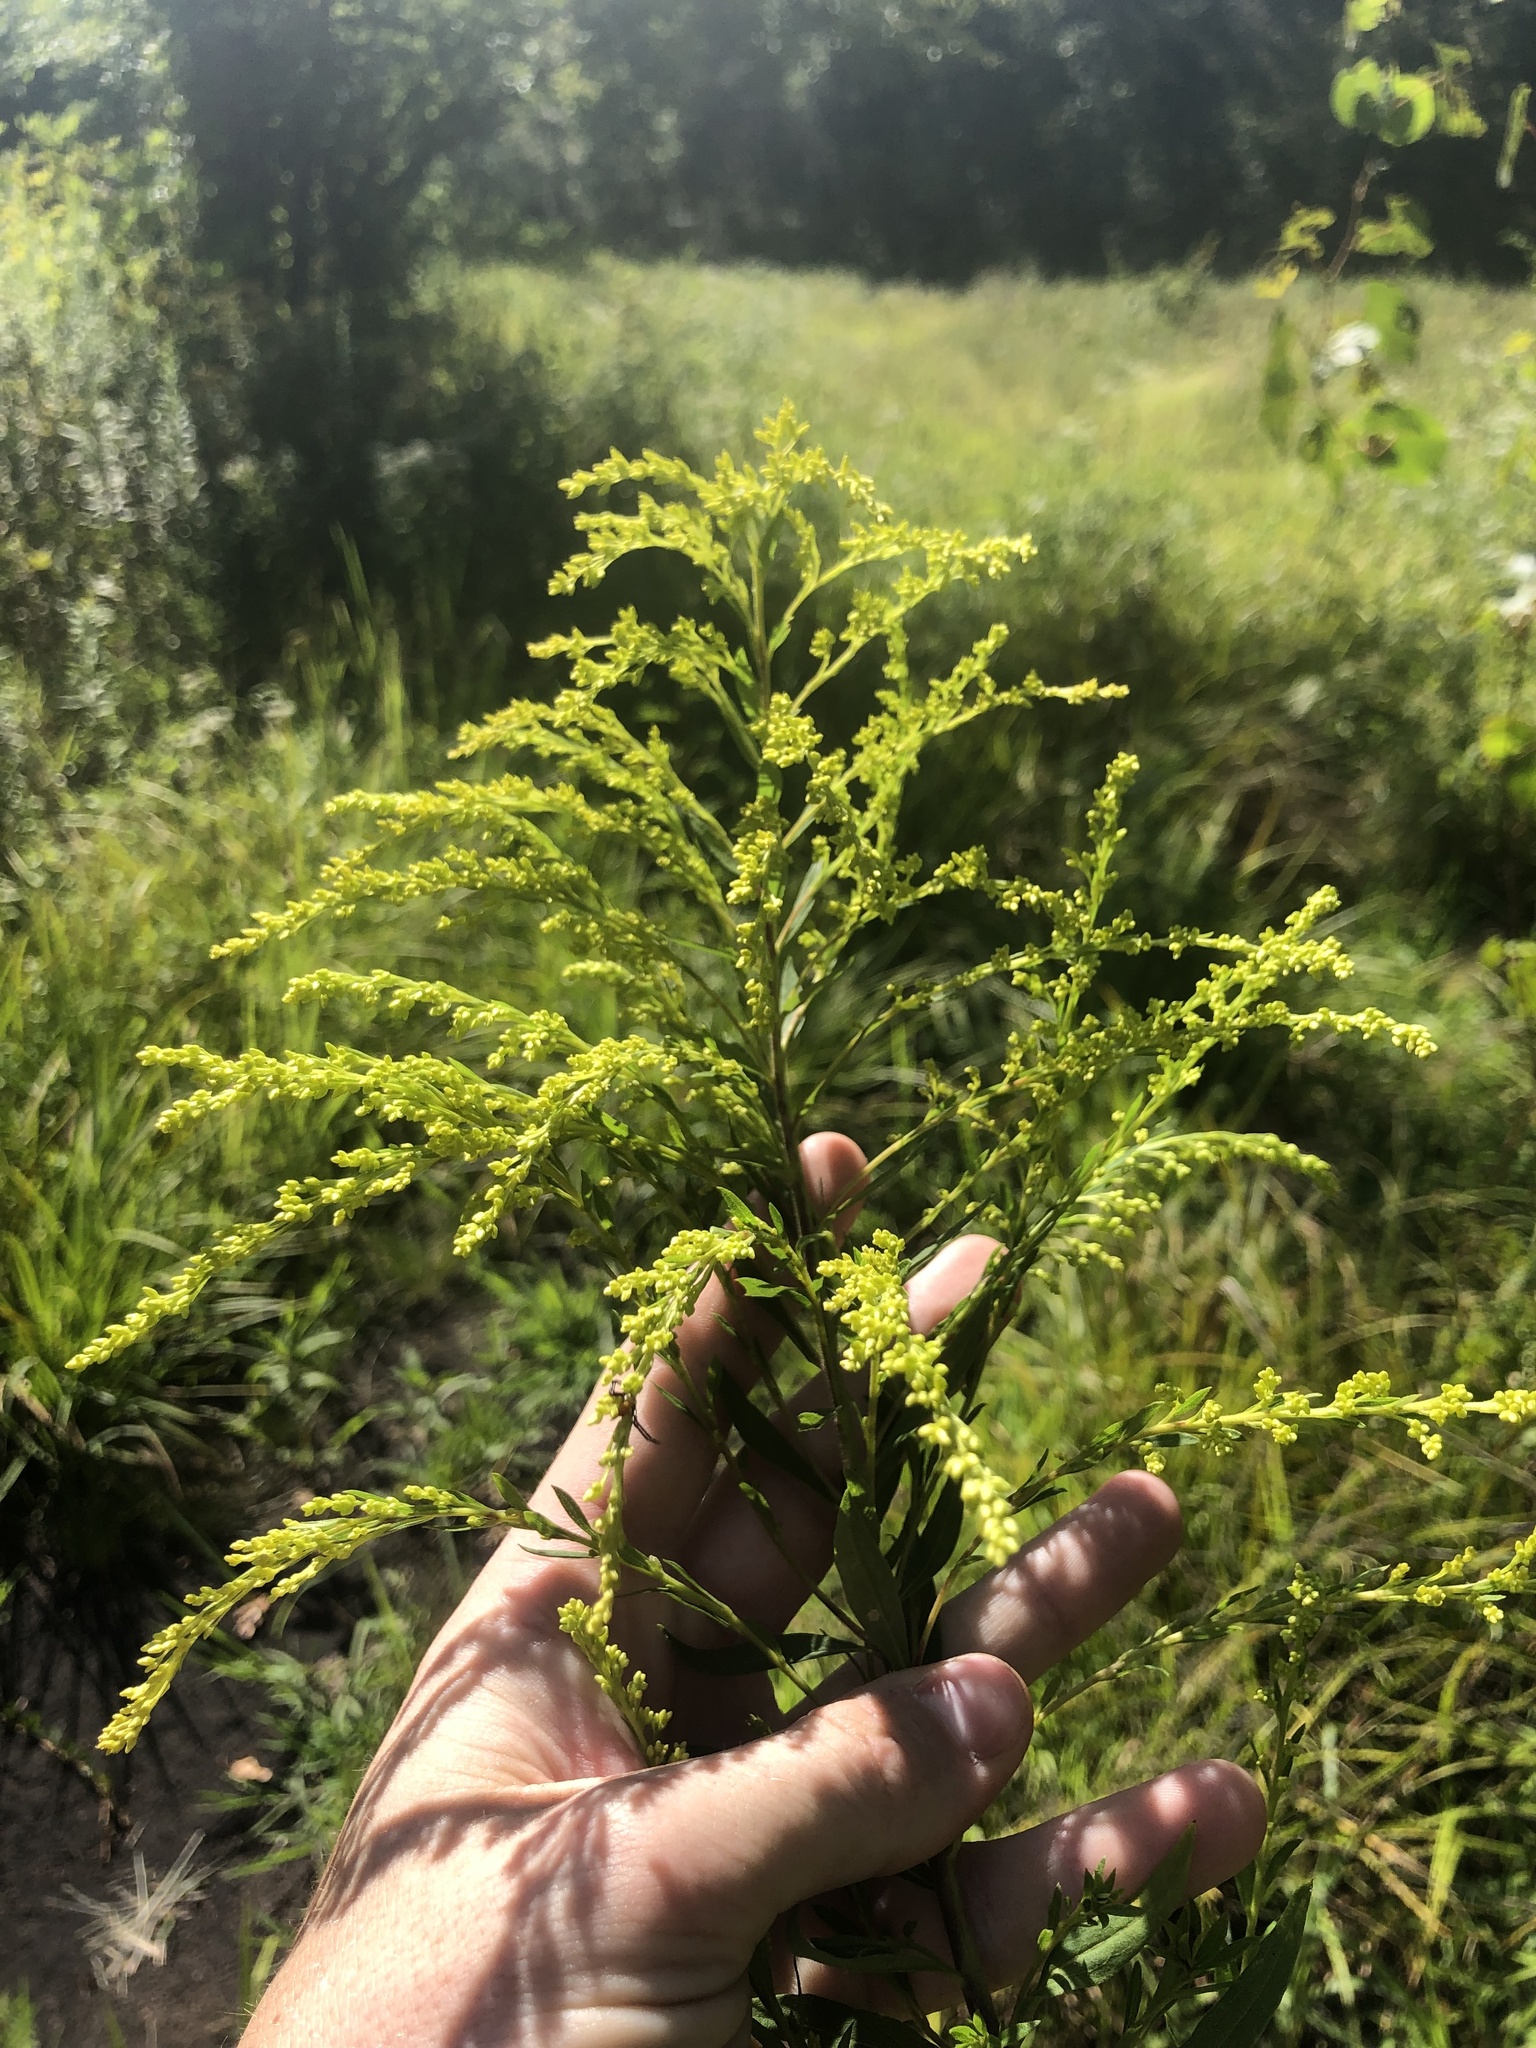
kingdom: Plantae
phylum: Tracheophyta
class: Magnoliopsida
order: Asterales
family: Asteraceae
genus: Solidago
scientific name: Solidago altissima
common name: Late goldenrod
